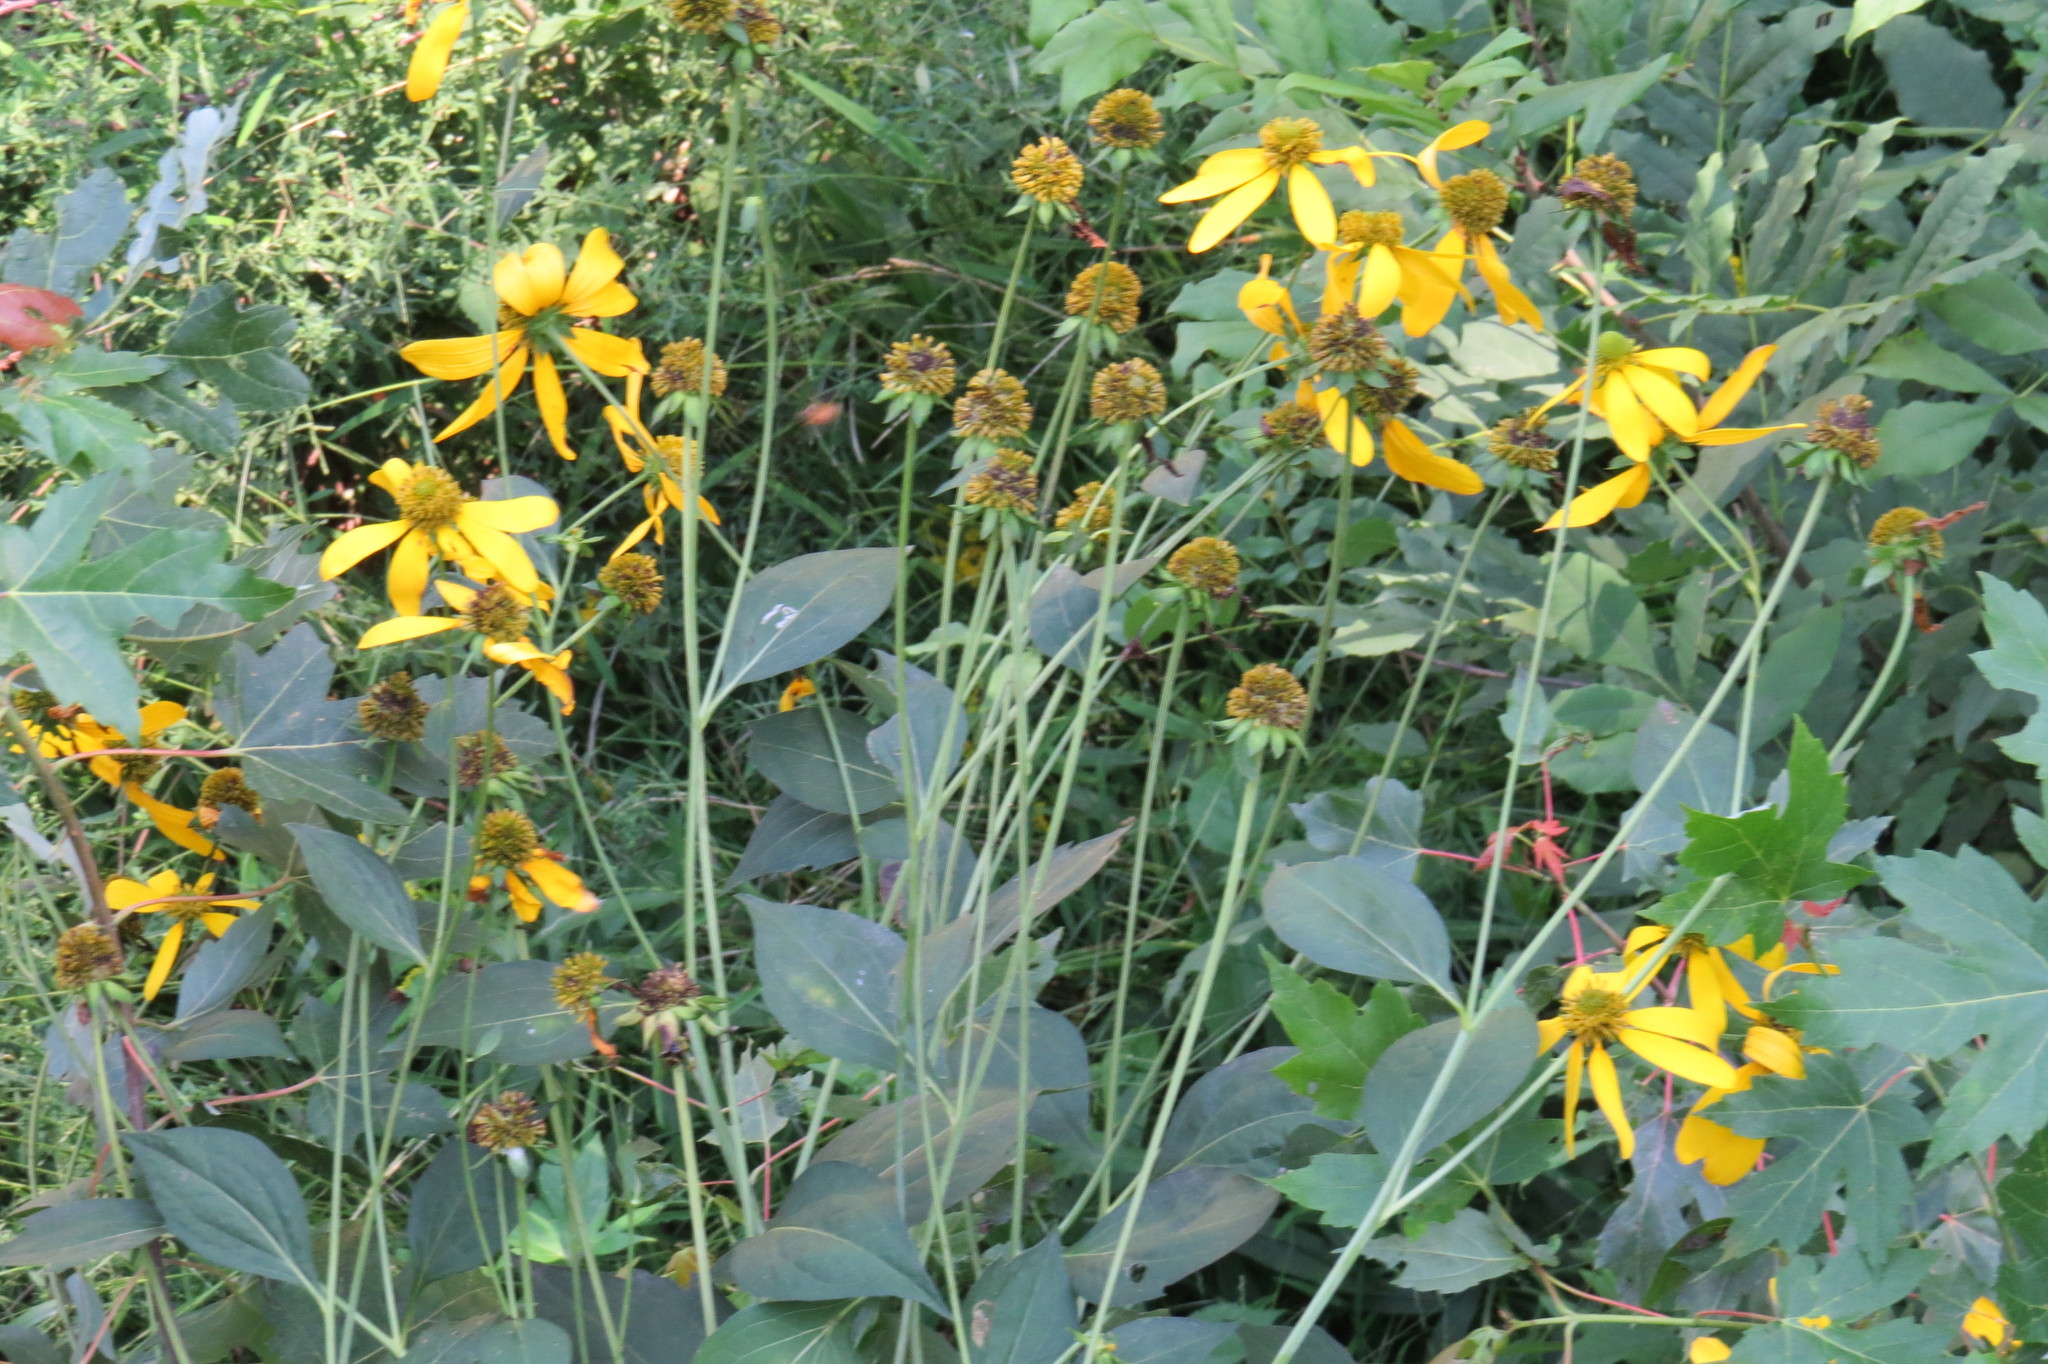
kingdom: Plantae
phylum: Tracheophyta
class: Magnoliopsida
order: Asterales
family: Asteraceae
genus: Rudbeckia
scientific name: Rudbeckia laciniata
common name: Coneflower
